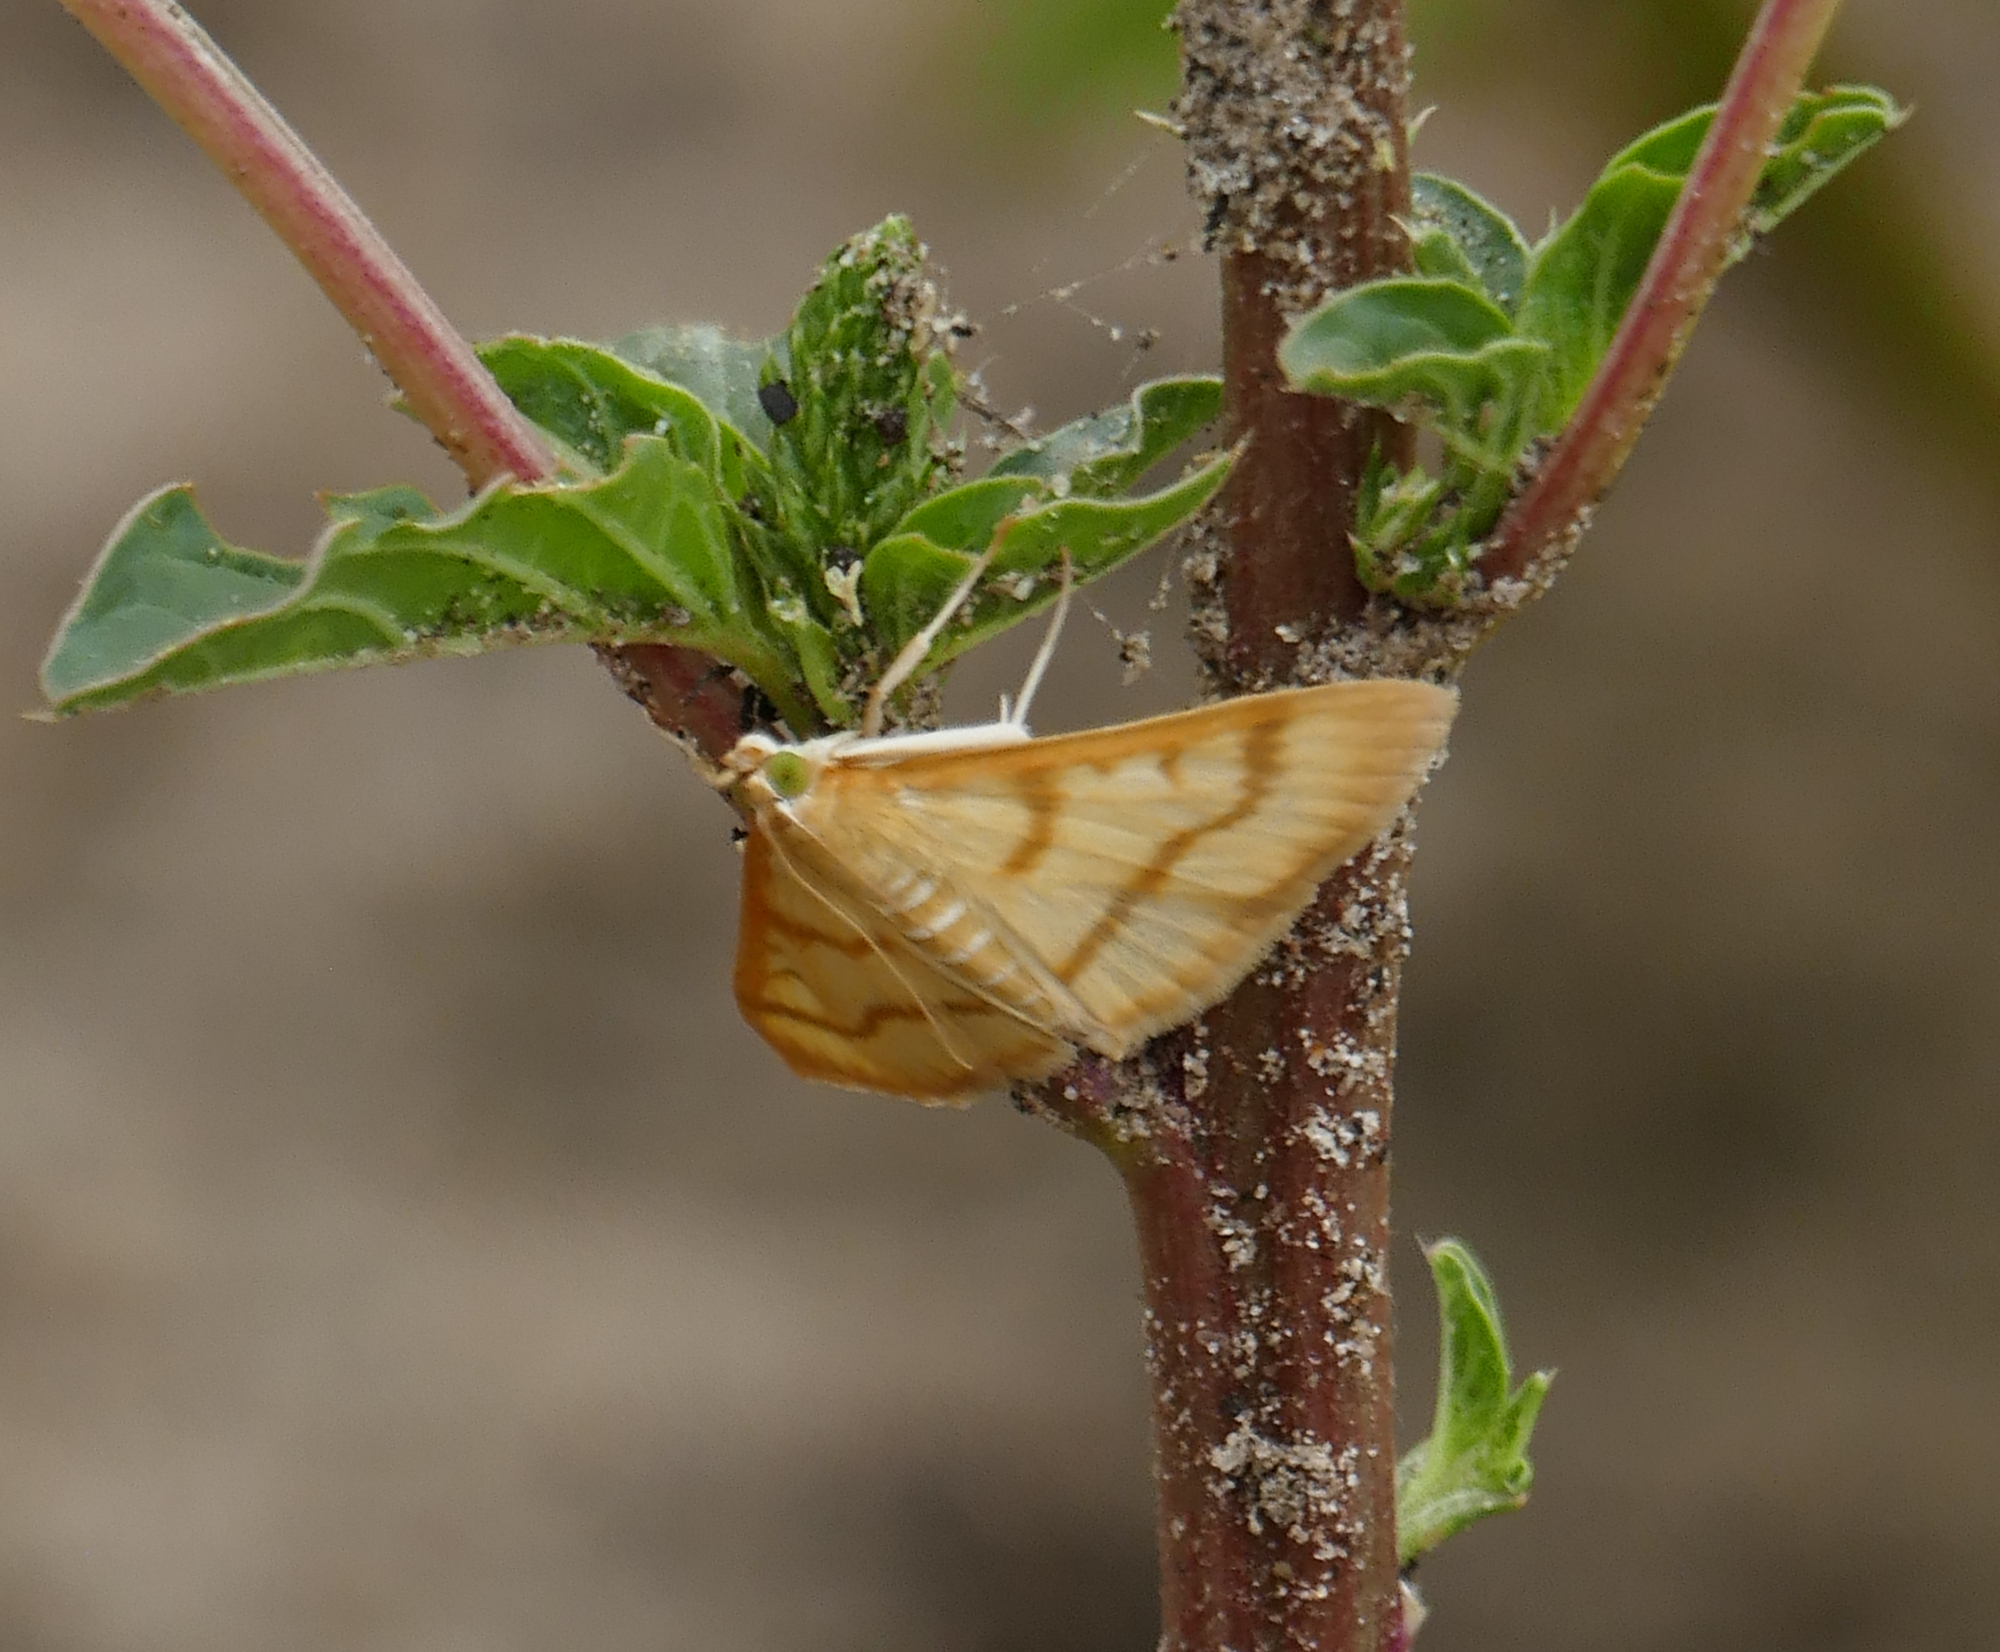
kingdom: Animalia
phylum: Arthropoda
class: Insecta
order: Lepidoptera
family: Crambidae
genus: Neohelvibotys
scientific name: Neohelvibotys arizonensis
